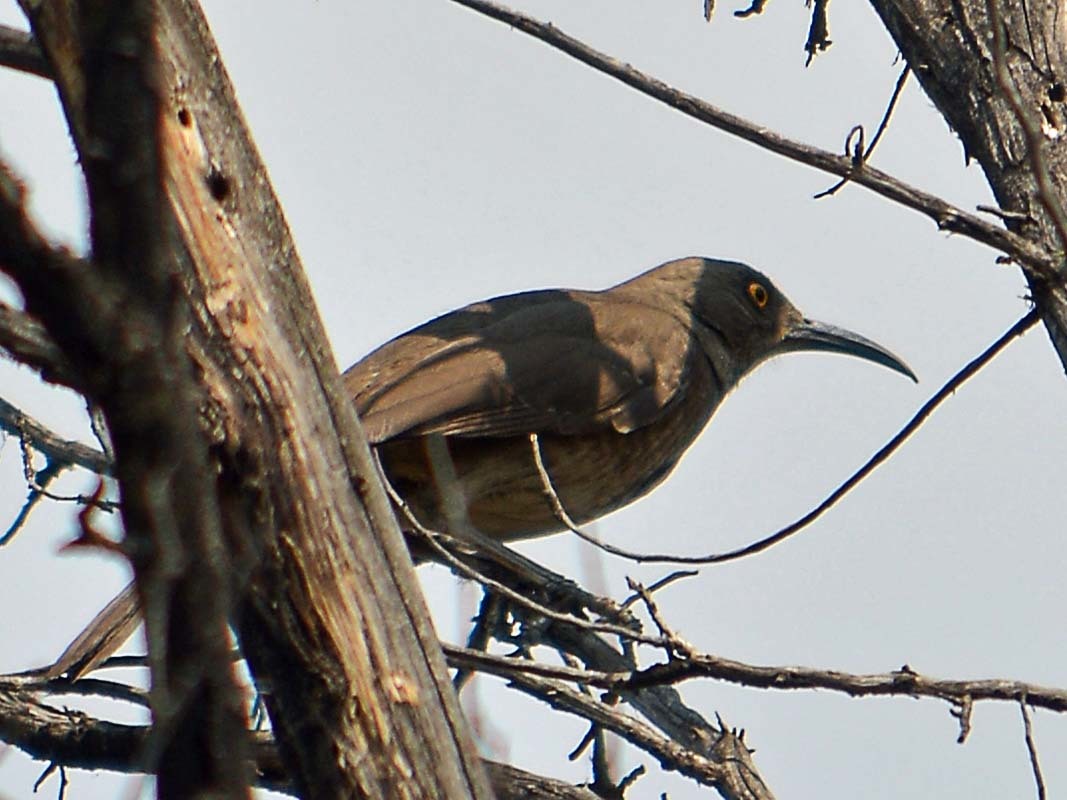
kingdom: Animalia
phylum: Chordata
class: Aves
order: Passeriformes
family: Mimidae
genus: Toxostoma
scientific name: Toxostoma curvirostre
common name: Curve-billed thrasher
